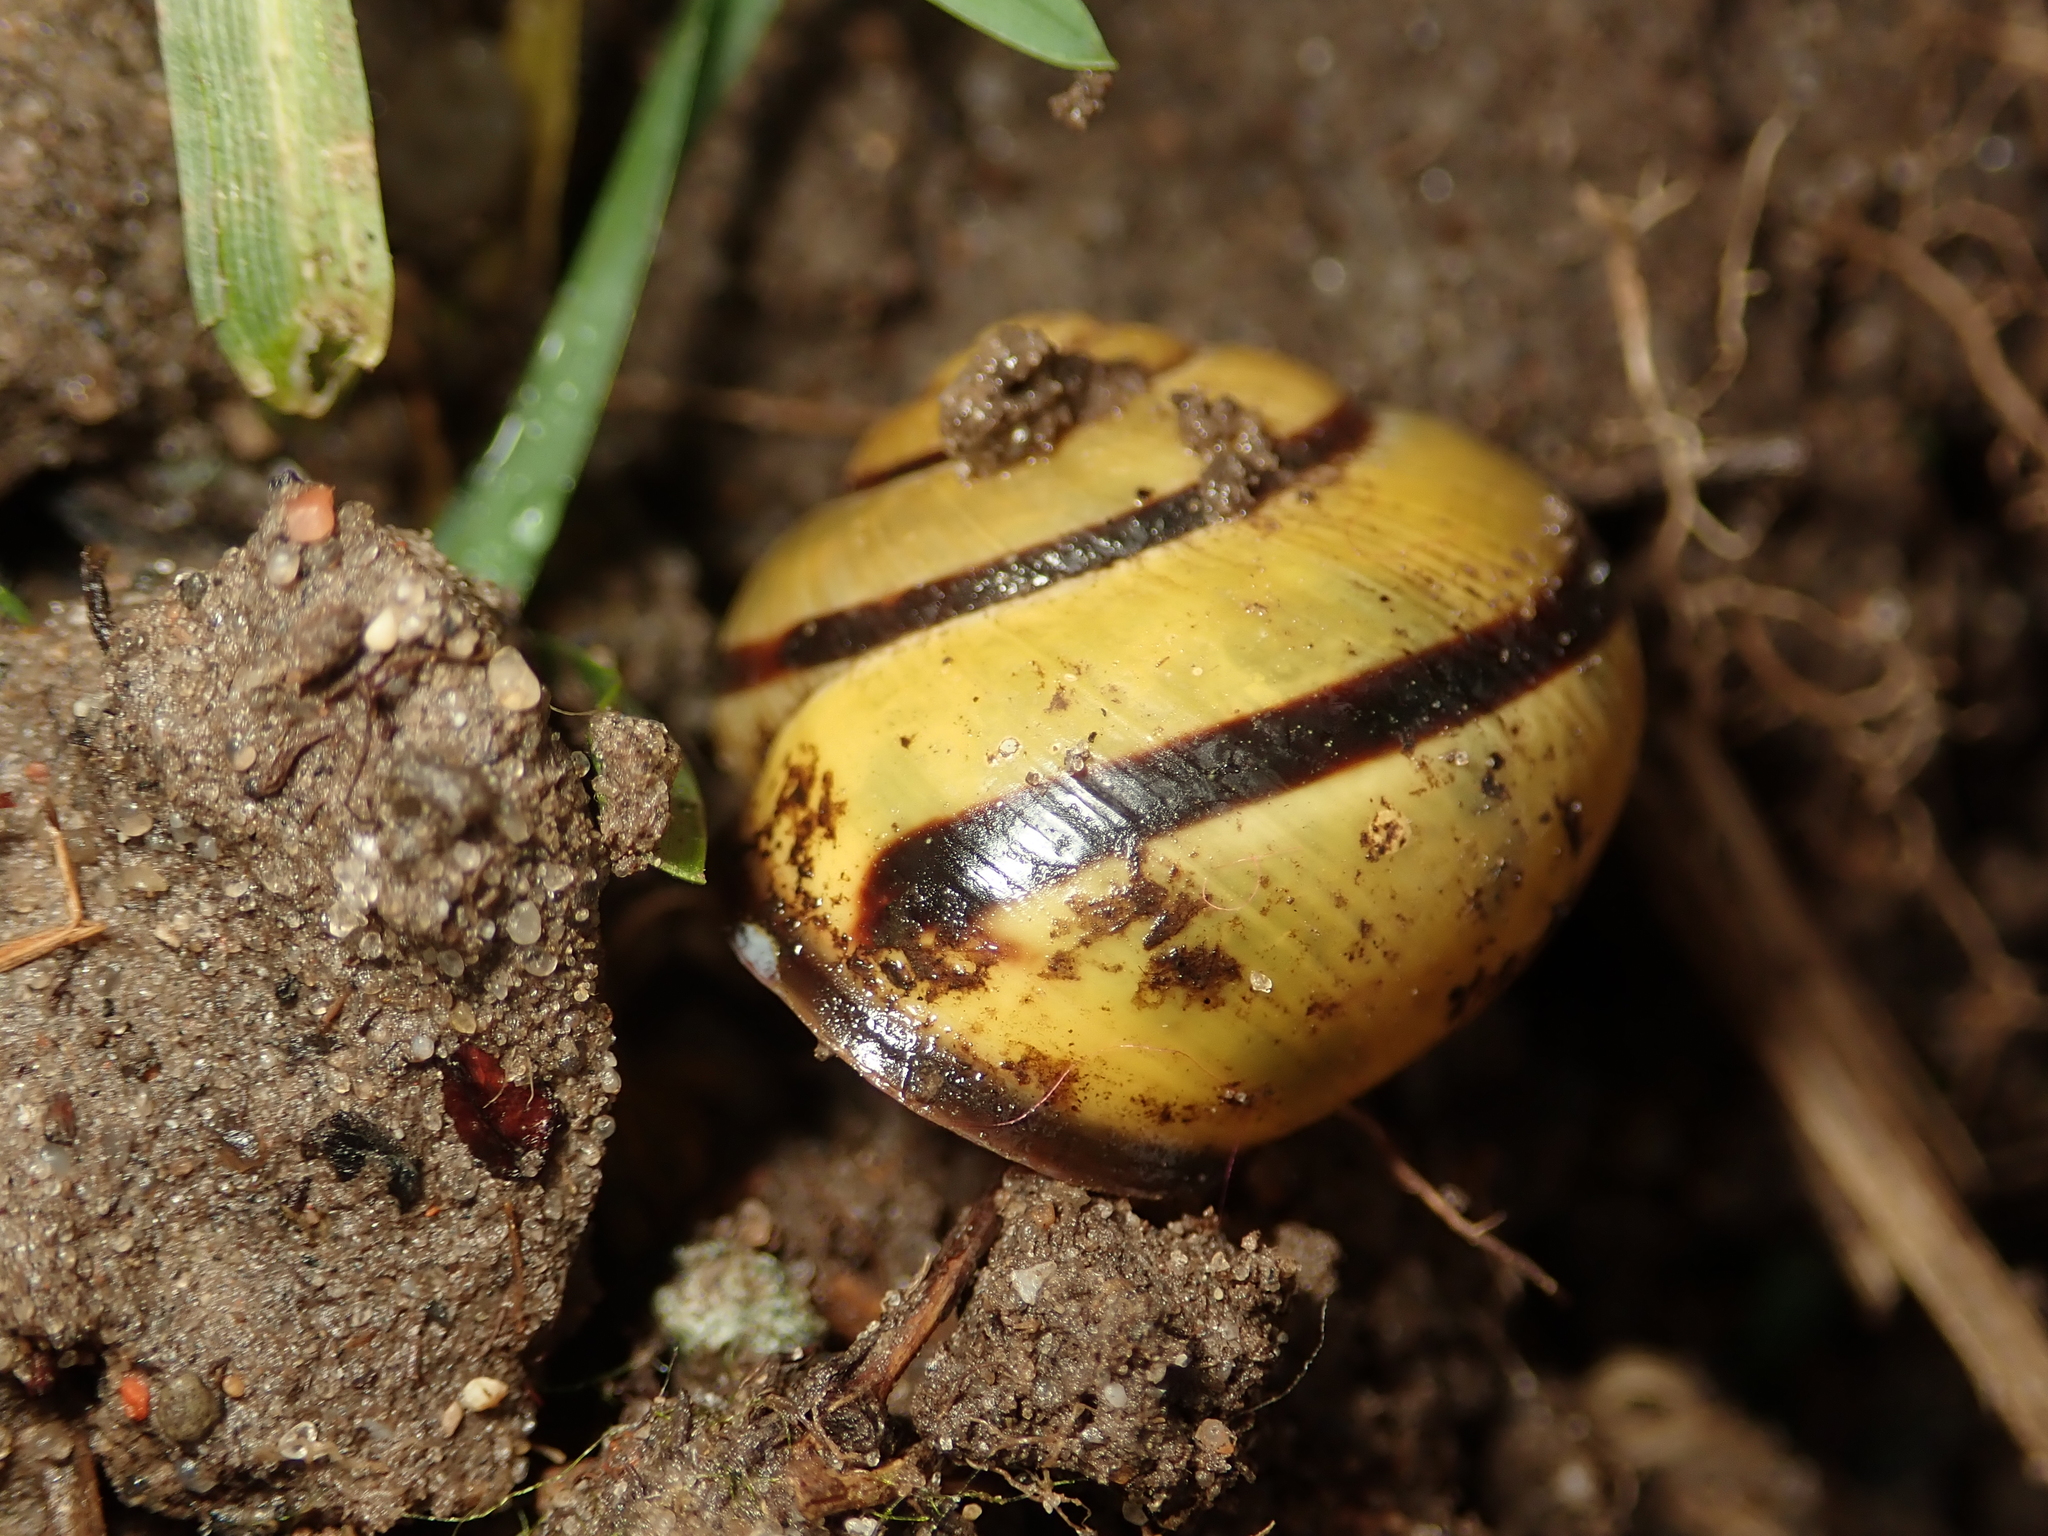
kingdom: Animalia
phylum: Mollusca
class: Gastropoda
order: Stylommatophora
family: Helicidae
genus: Cepaea
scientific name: Cepaea nemoralis
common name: Grovesnail
